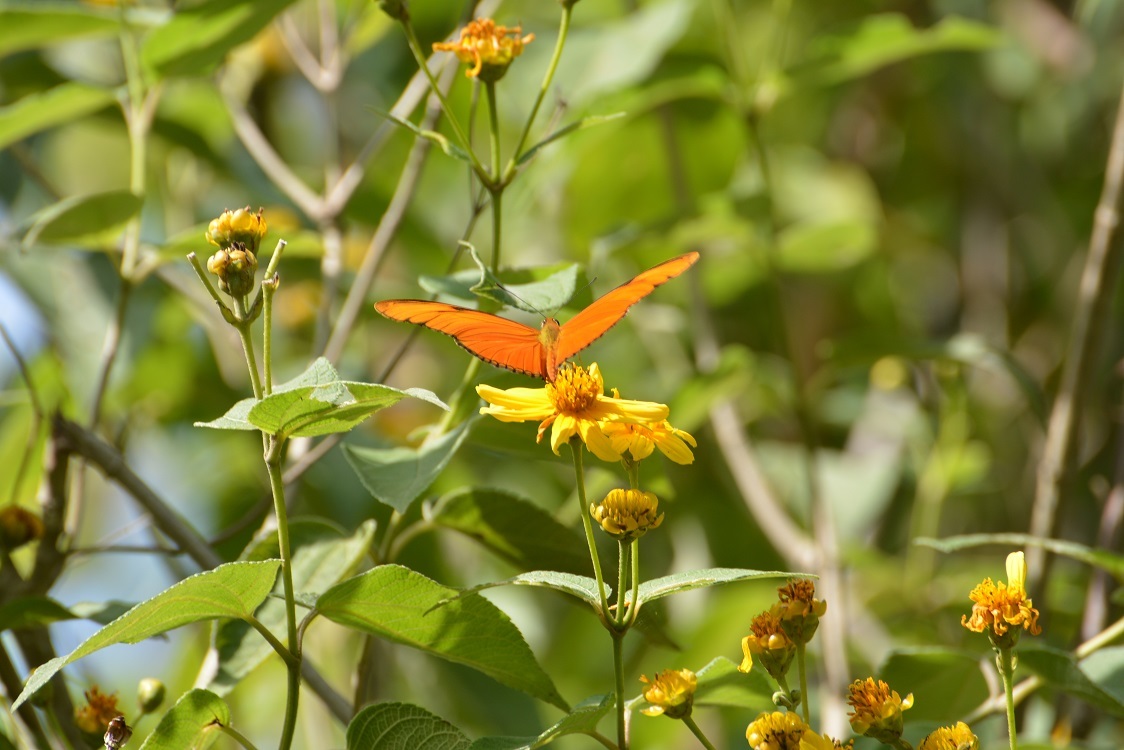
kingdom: Animalia
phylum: Arthropoda
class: Insecta
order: Lepidoptera
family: Nymphalidae
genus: Dryas
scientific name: Dryas iulia
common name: Flambeau
